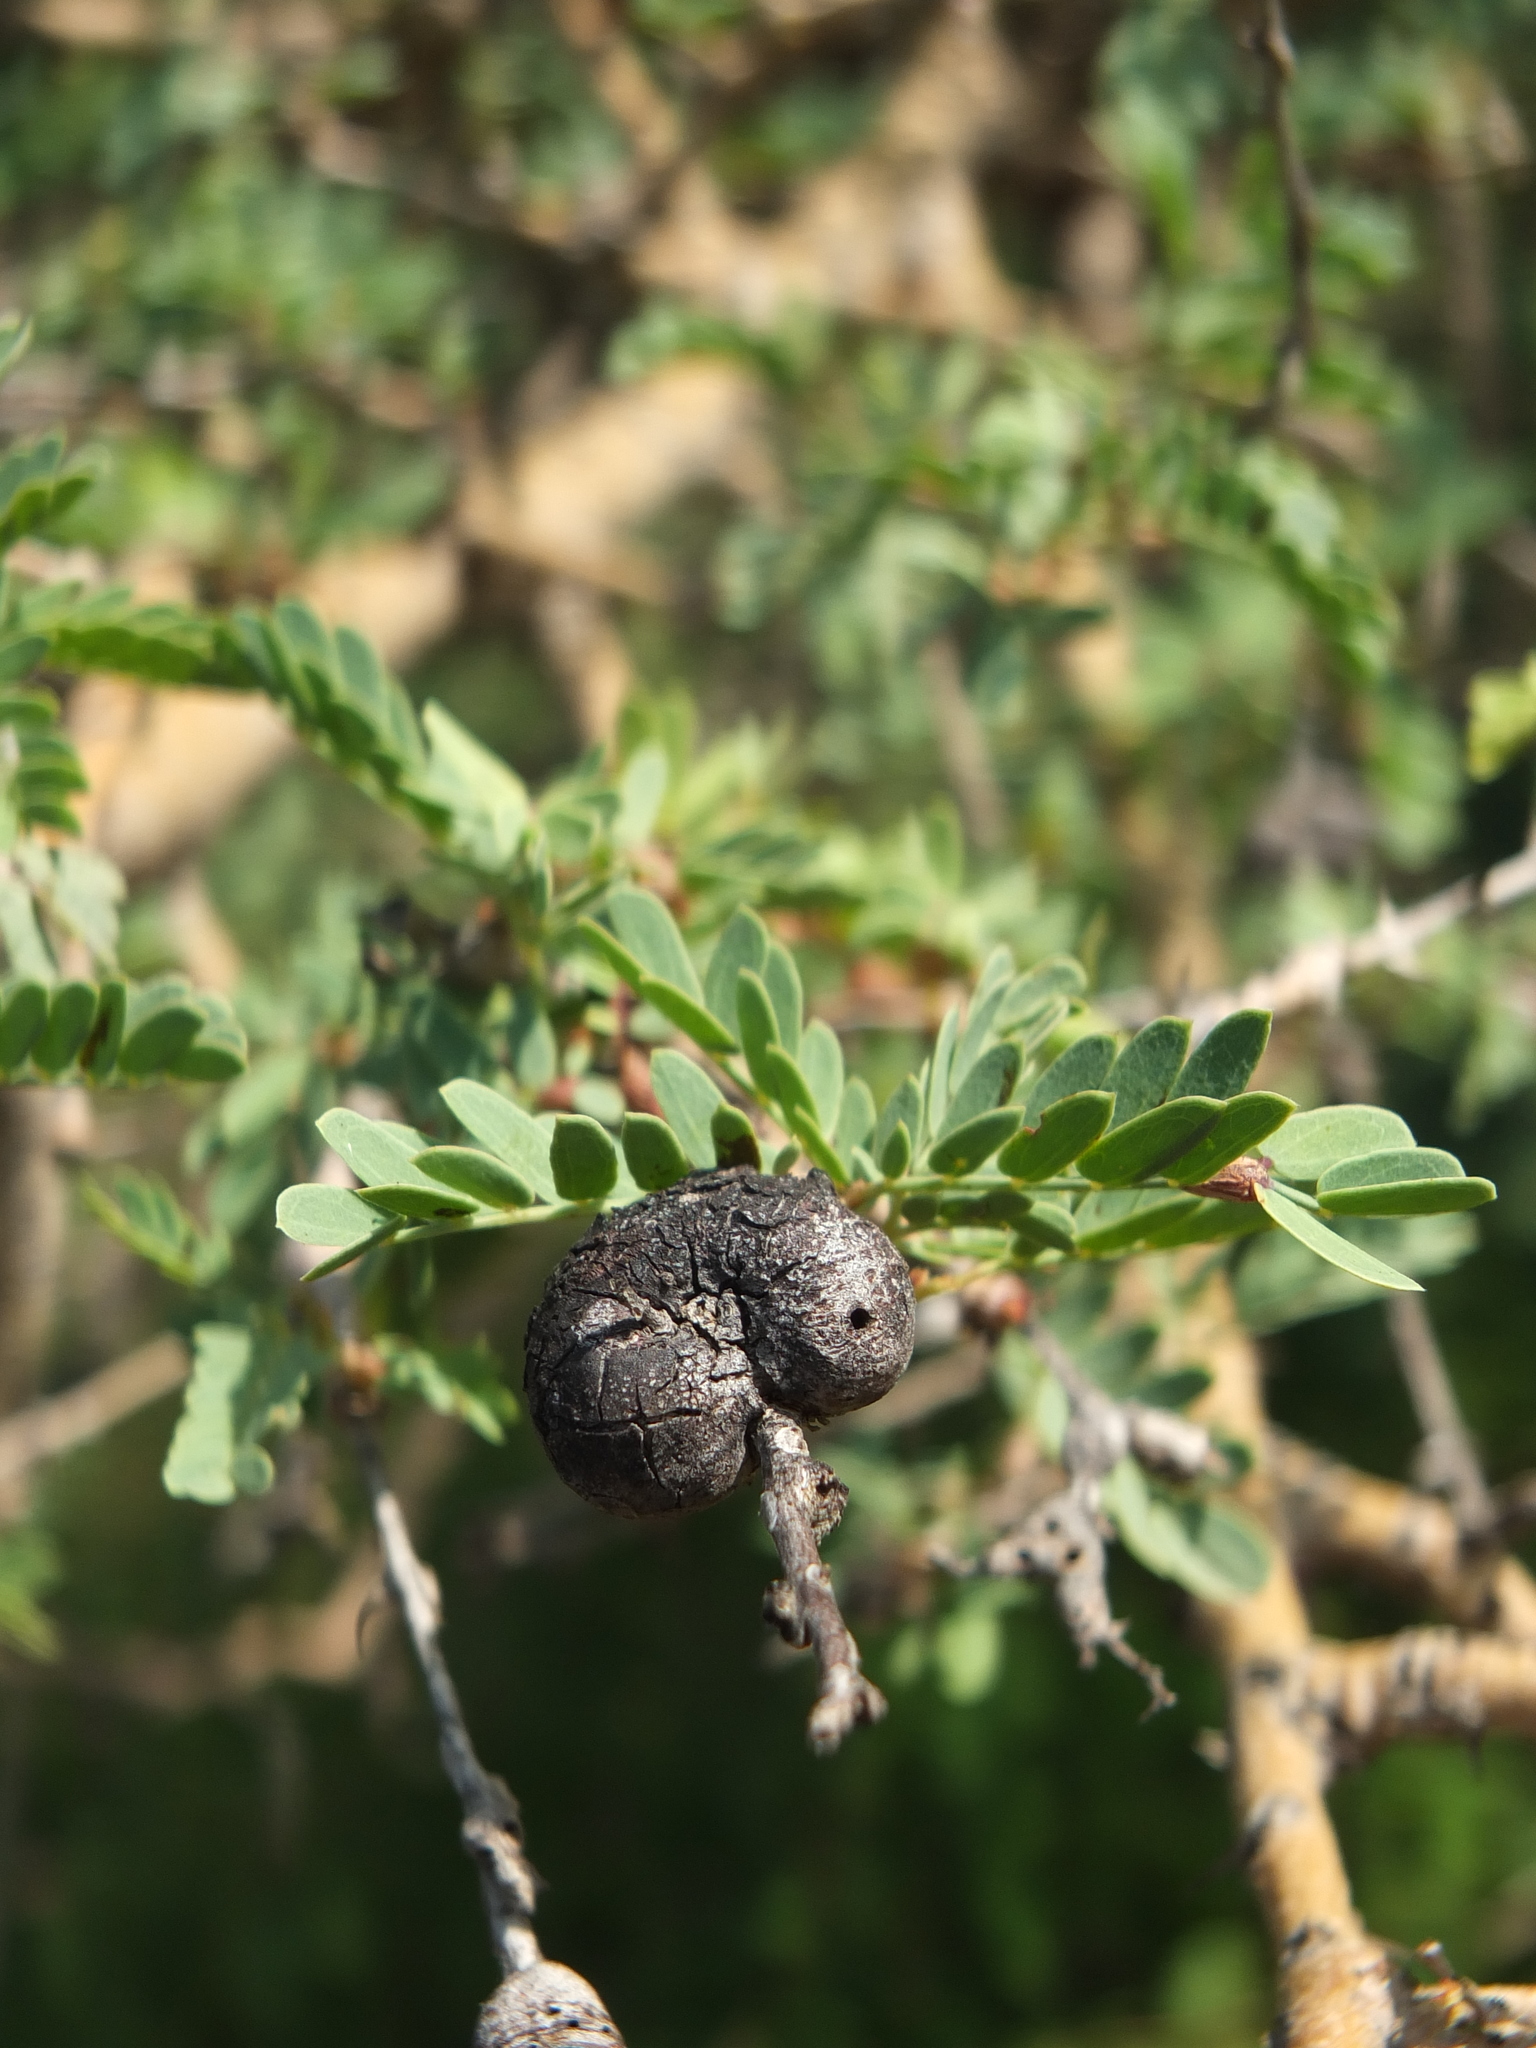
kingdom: Plantae
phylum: Tracheophyta
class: Magnoliopsida
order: Fabales
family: Fabaceae
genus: Prosopis
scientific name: Prosopis cineraria
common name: Jandi
